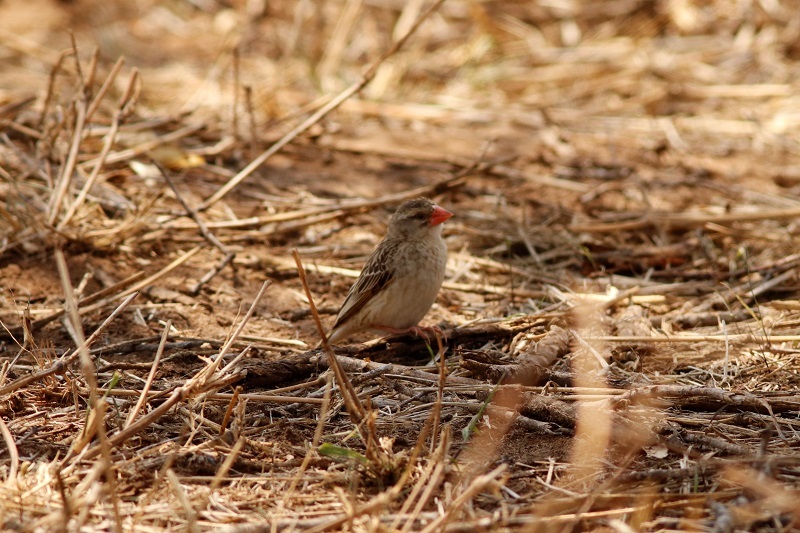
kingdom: Animalia
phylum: Chordata
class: Aves
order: Passeriformes
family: Ploceidae
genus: Quelea
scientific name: Quelea quelea
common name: Red-billed quelea
